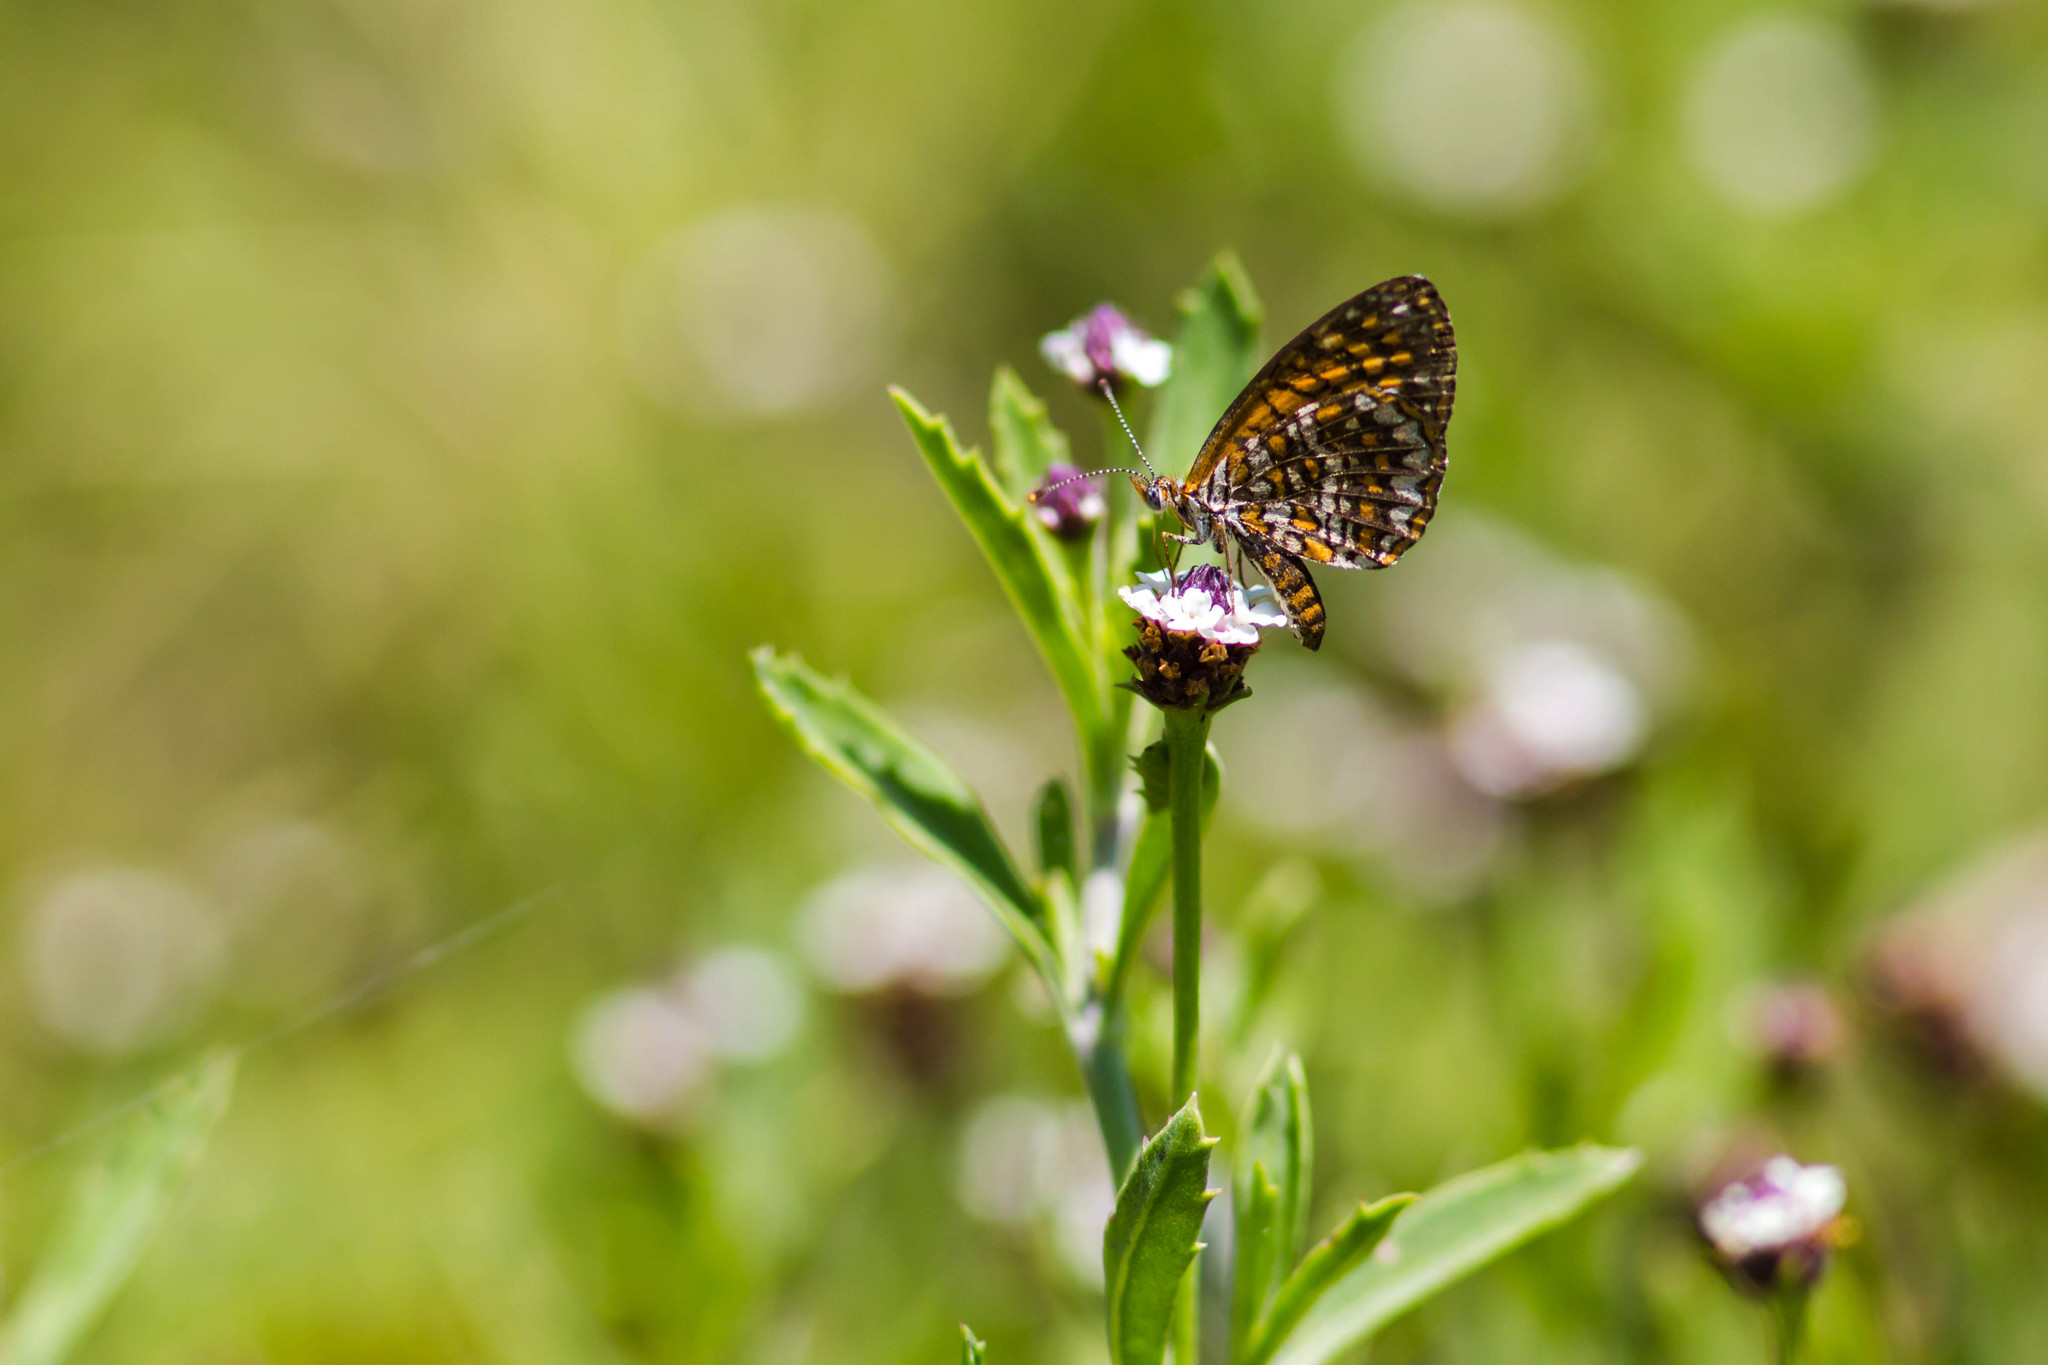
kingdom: Animalia
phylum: Arthropoda
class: Insecta
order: Lepidoptera
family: Nymphalidae
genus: Texola
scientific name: Texola elada
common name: Elada checkerspot
